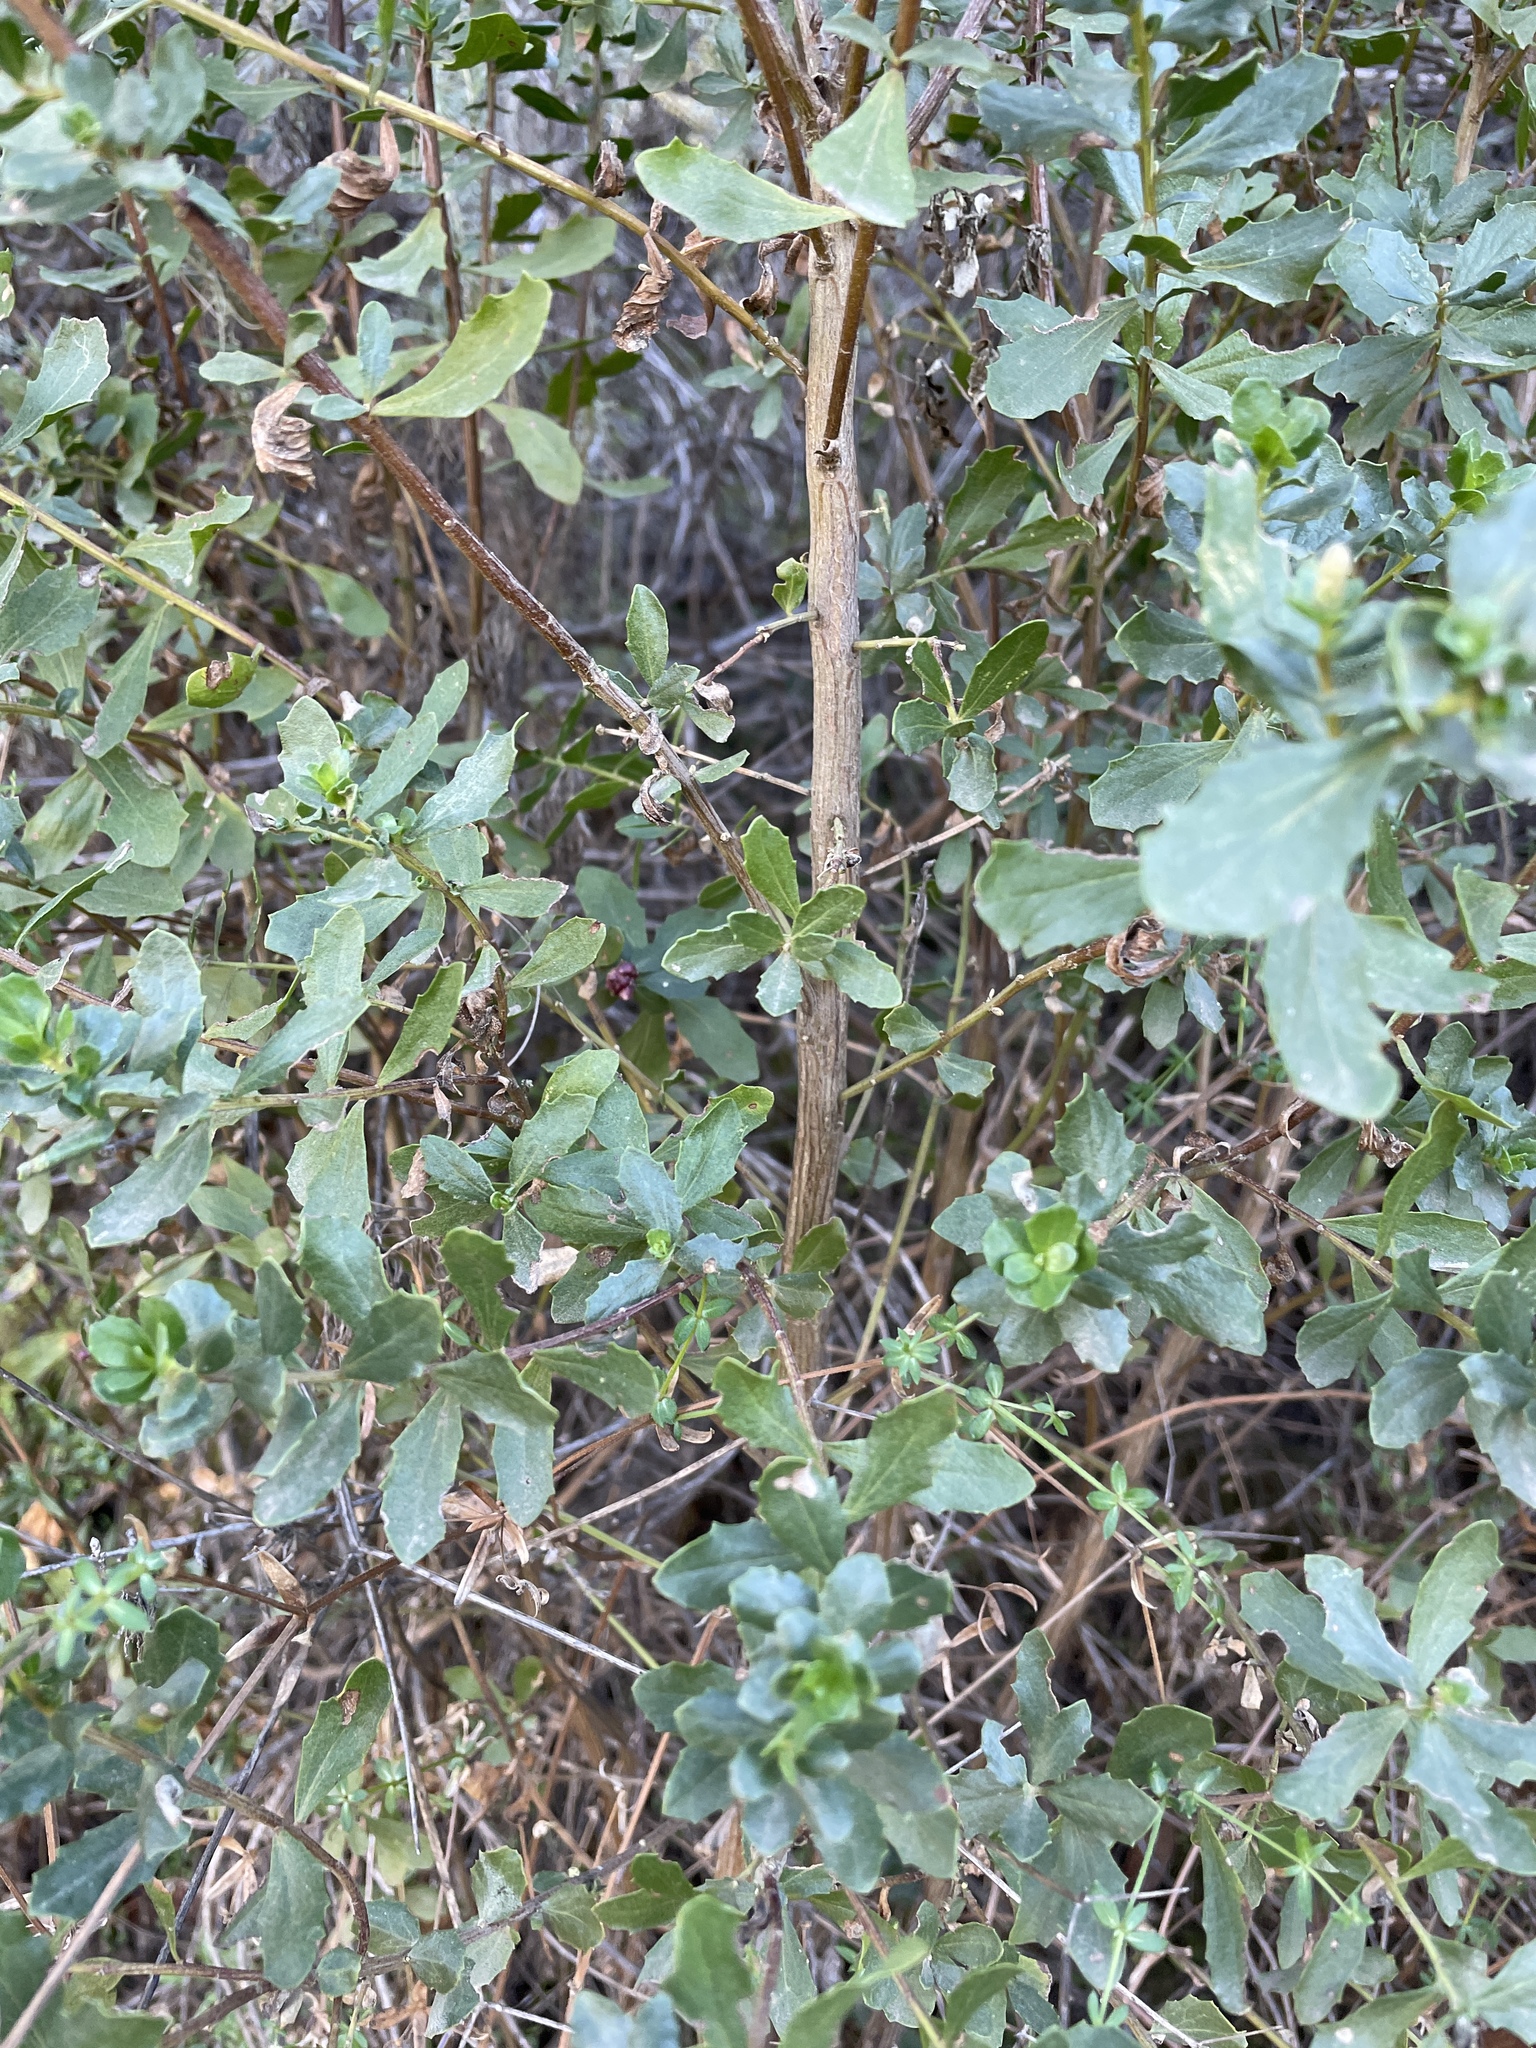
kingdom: Plantae
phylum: Tracheophyta
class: Magnoliopsida
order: Asterales
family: Asteraceae
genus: Baccharis
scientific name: Baccharis pilularis
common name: Coyotebrush
